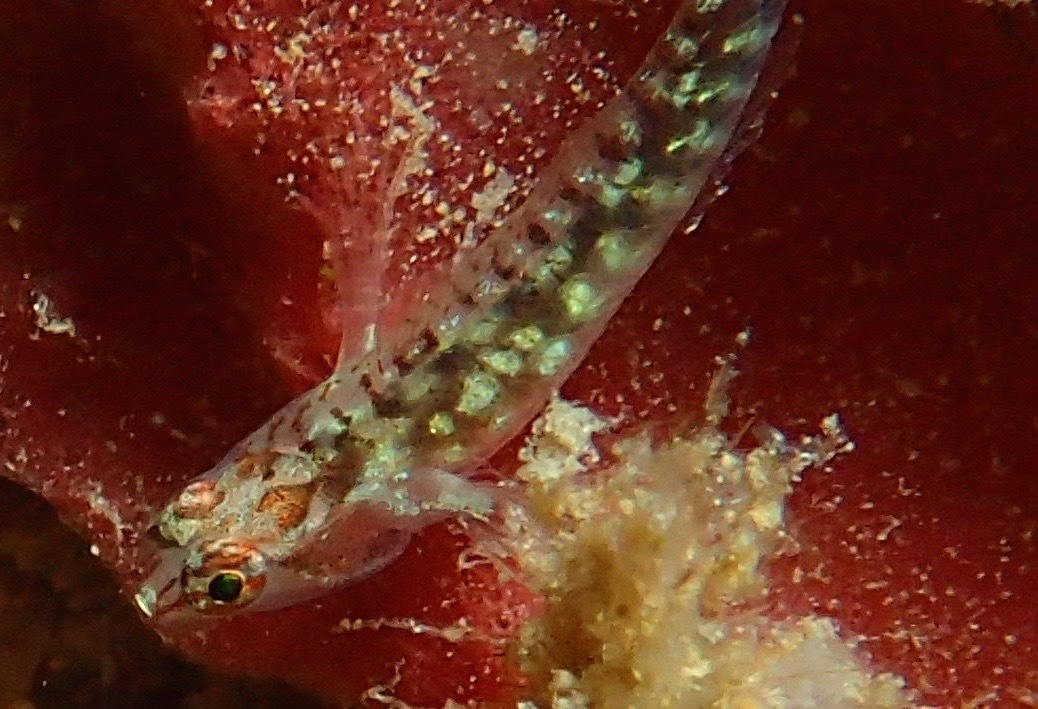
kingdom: Animalia
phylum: Chordata
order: Perciformes
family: Gobiidae
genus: Eviota
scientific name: Eviota longirostris
